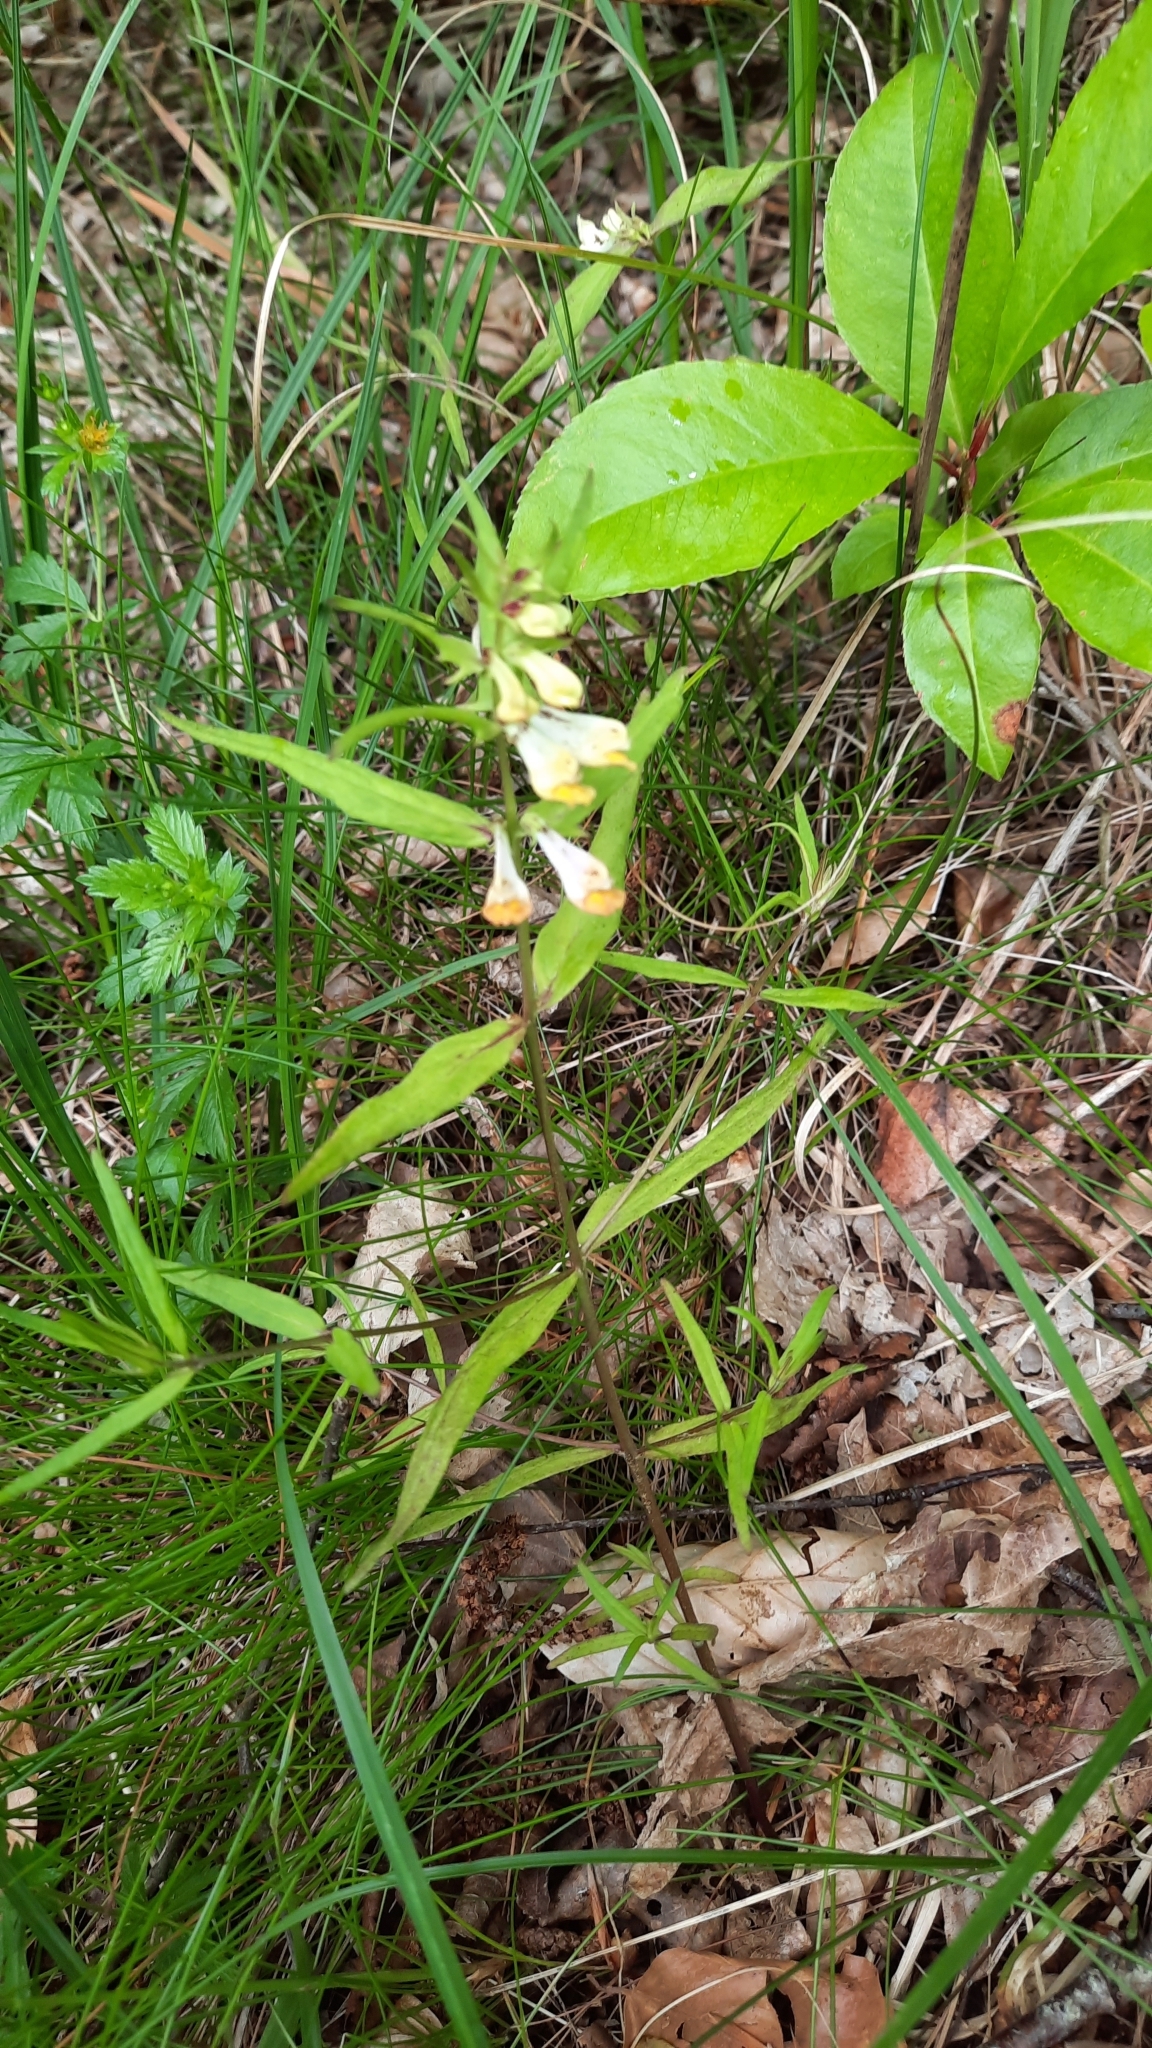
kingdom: Plantae
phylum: Tracheophyta
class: Magnoliopsida
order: Lamiales
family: Orobanchaceae
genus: Melampyrum
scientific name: Melampyrum pratense
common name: Common cow-wheat
